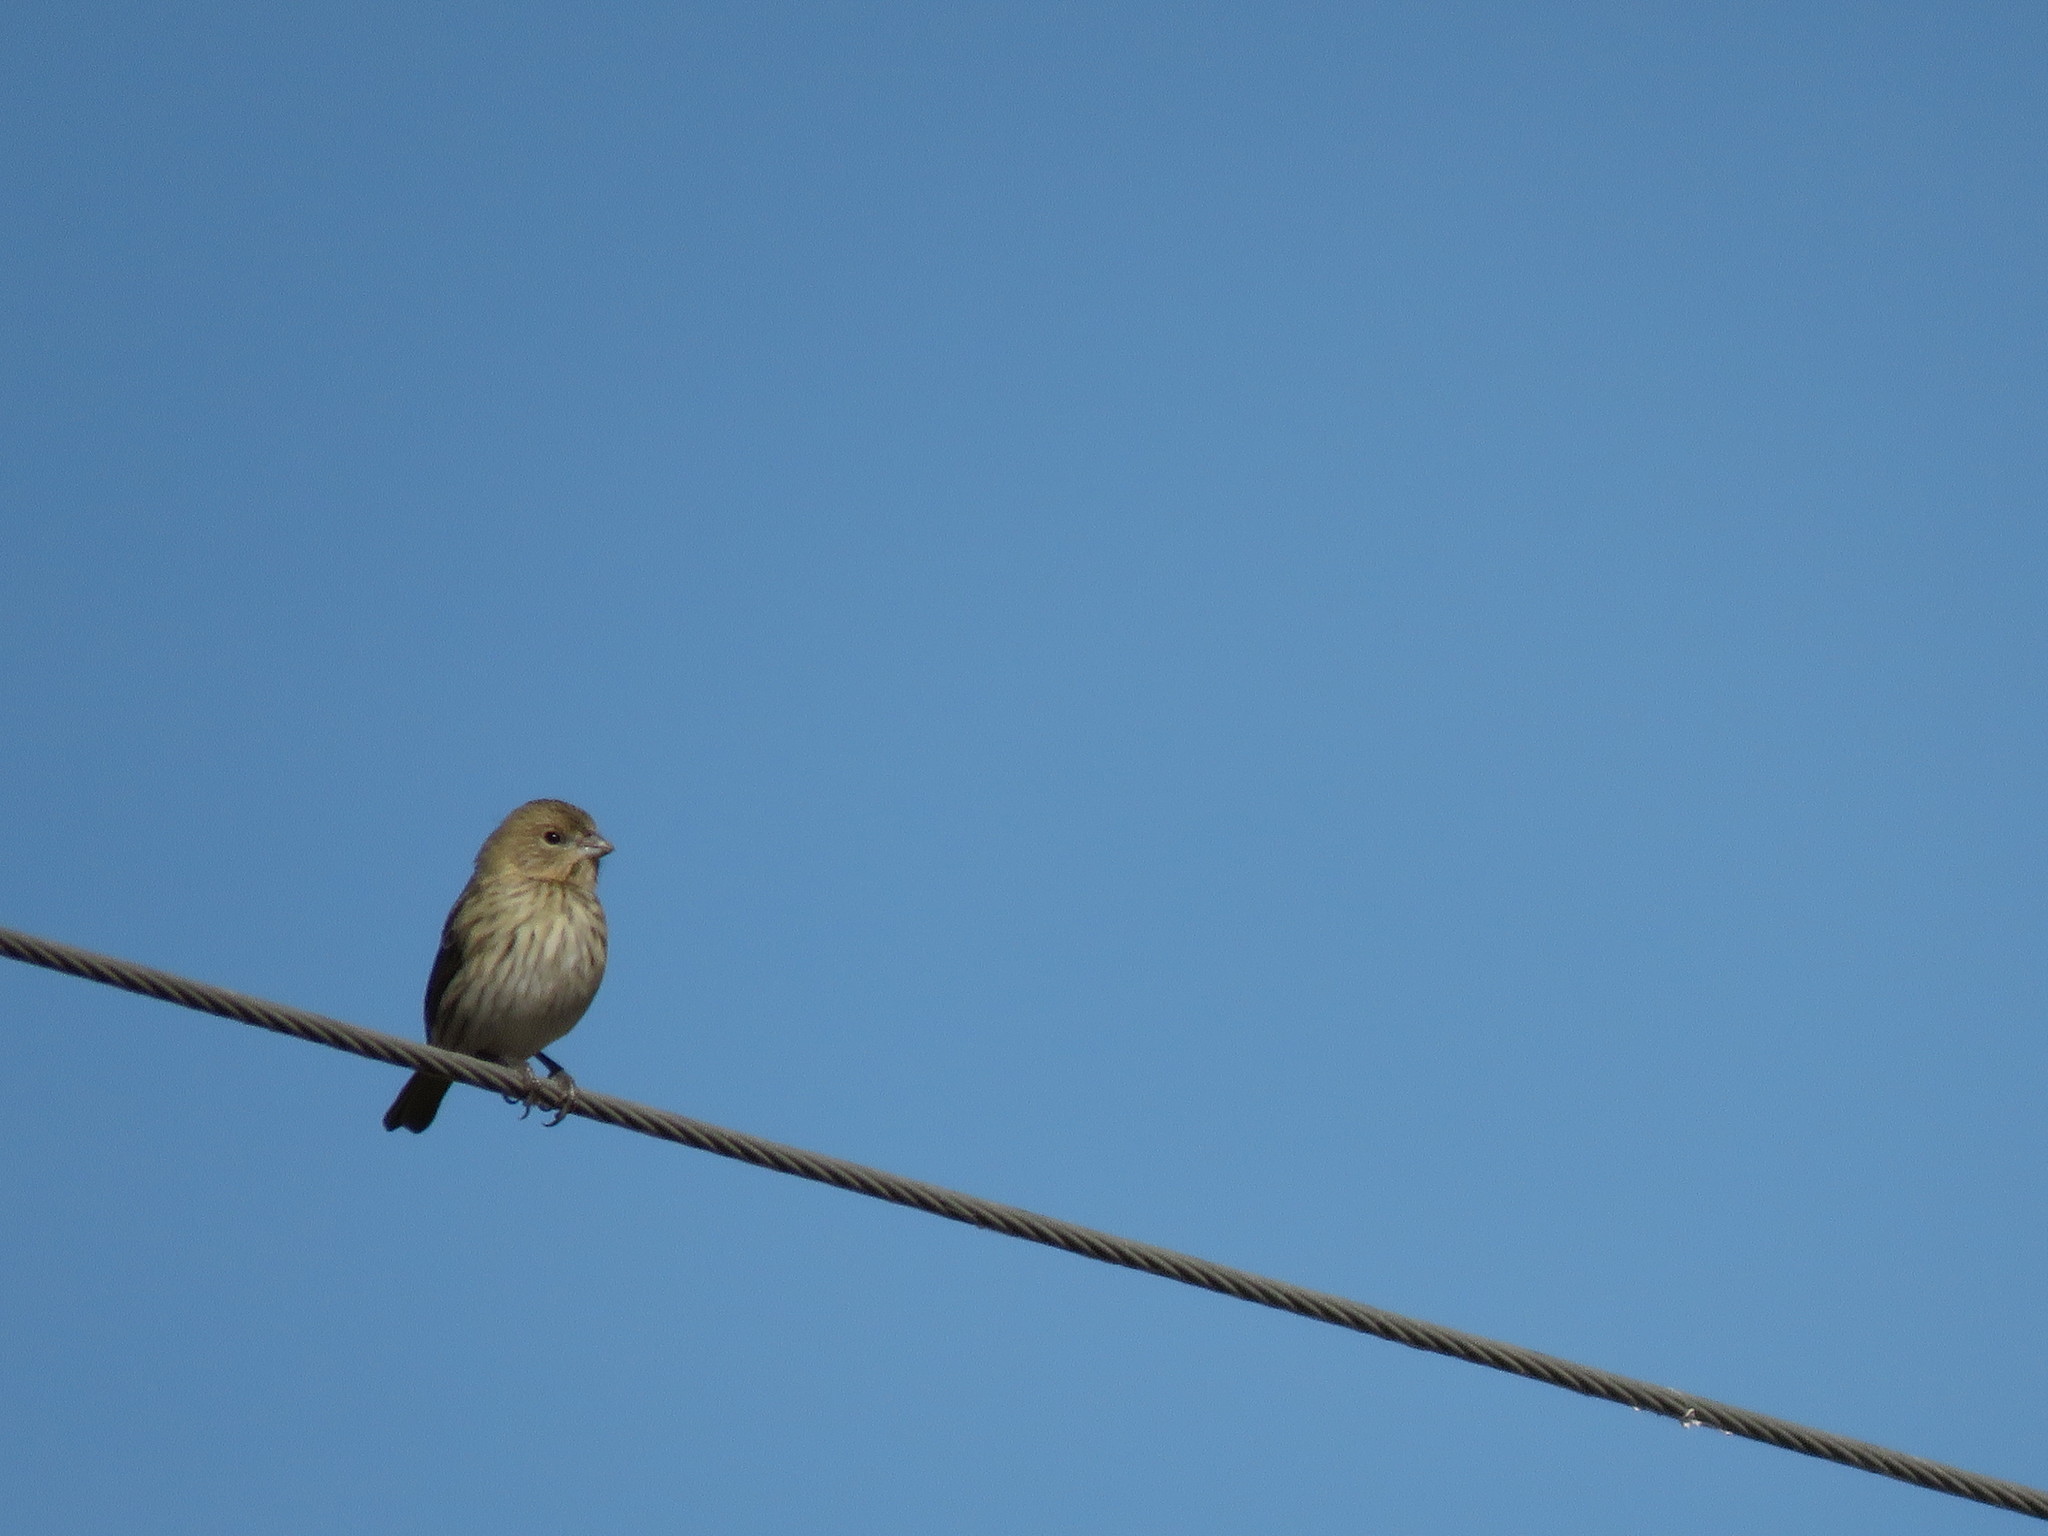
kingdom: Animalia
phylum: Chordata
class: Aves
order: Passeriformes
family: Thraupidae
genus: Sicalis
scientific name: Sicalis flaveola
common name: Saffron finch
